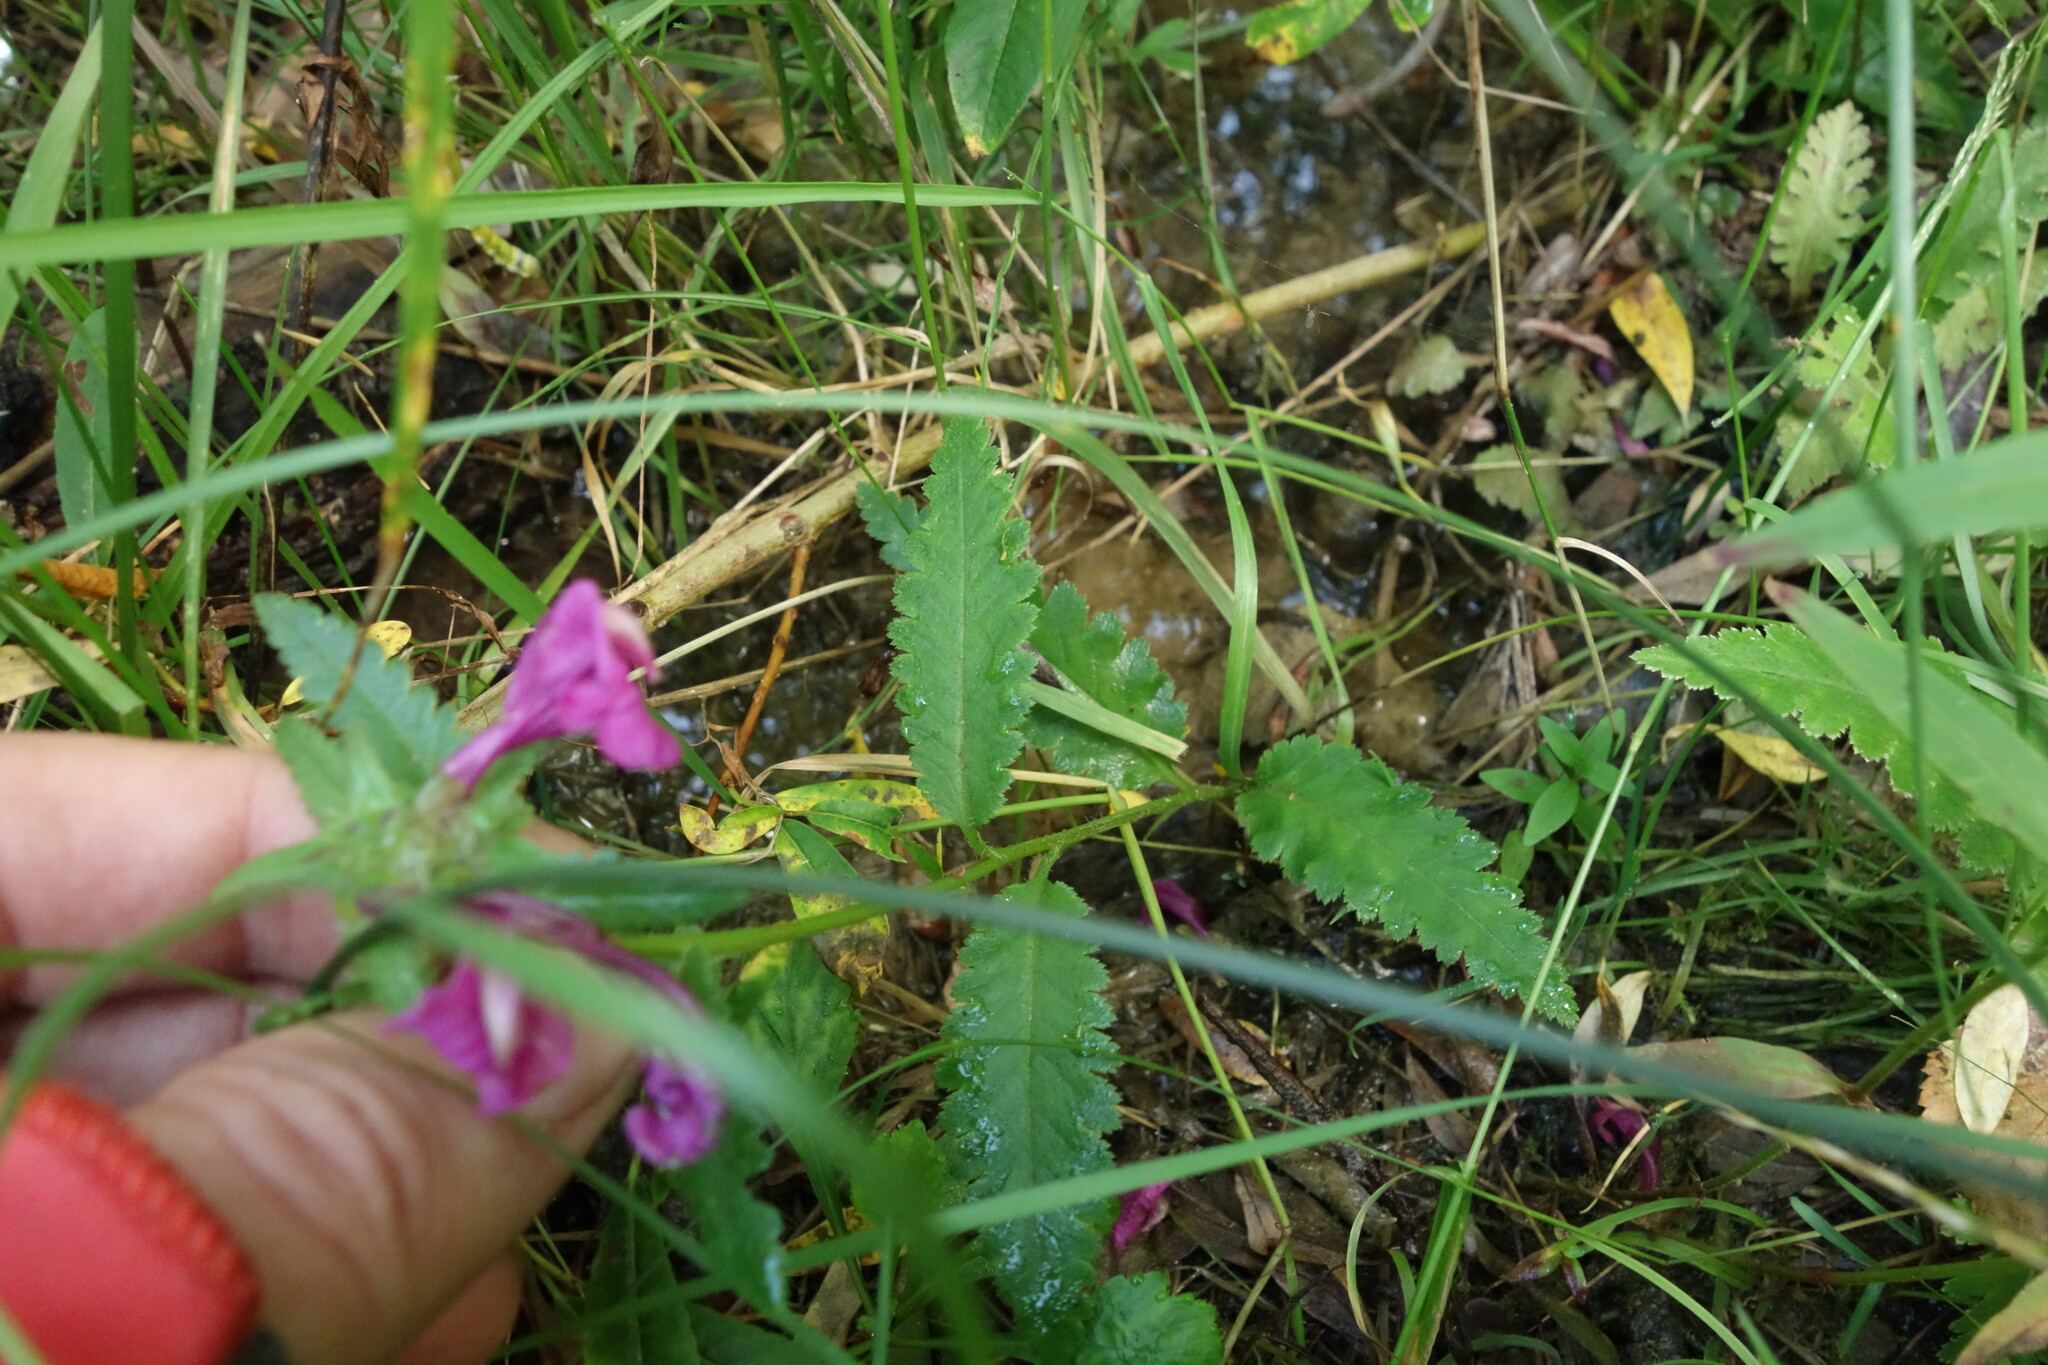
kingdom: Plantae
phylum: Tracheophyta
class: Magnoliopsida
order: Lamiales
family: Orobanchaceae
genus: Pedicularis
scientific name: Pedicularis resupinata
